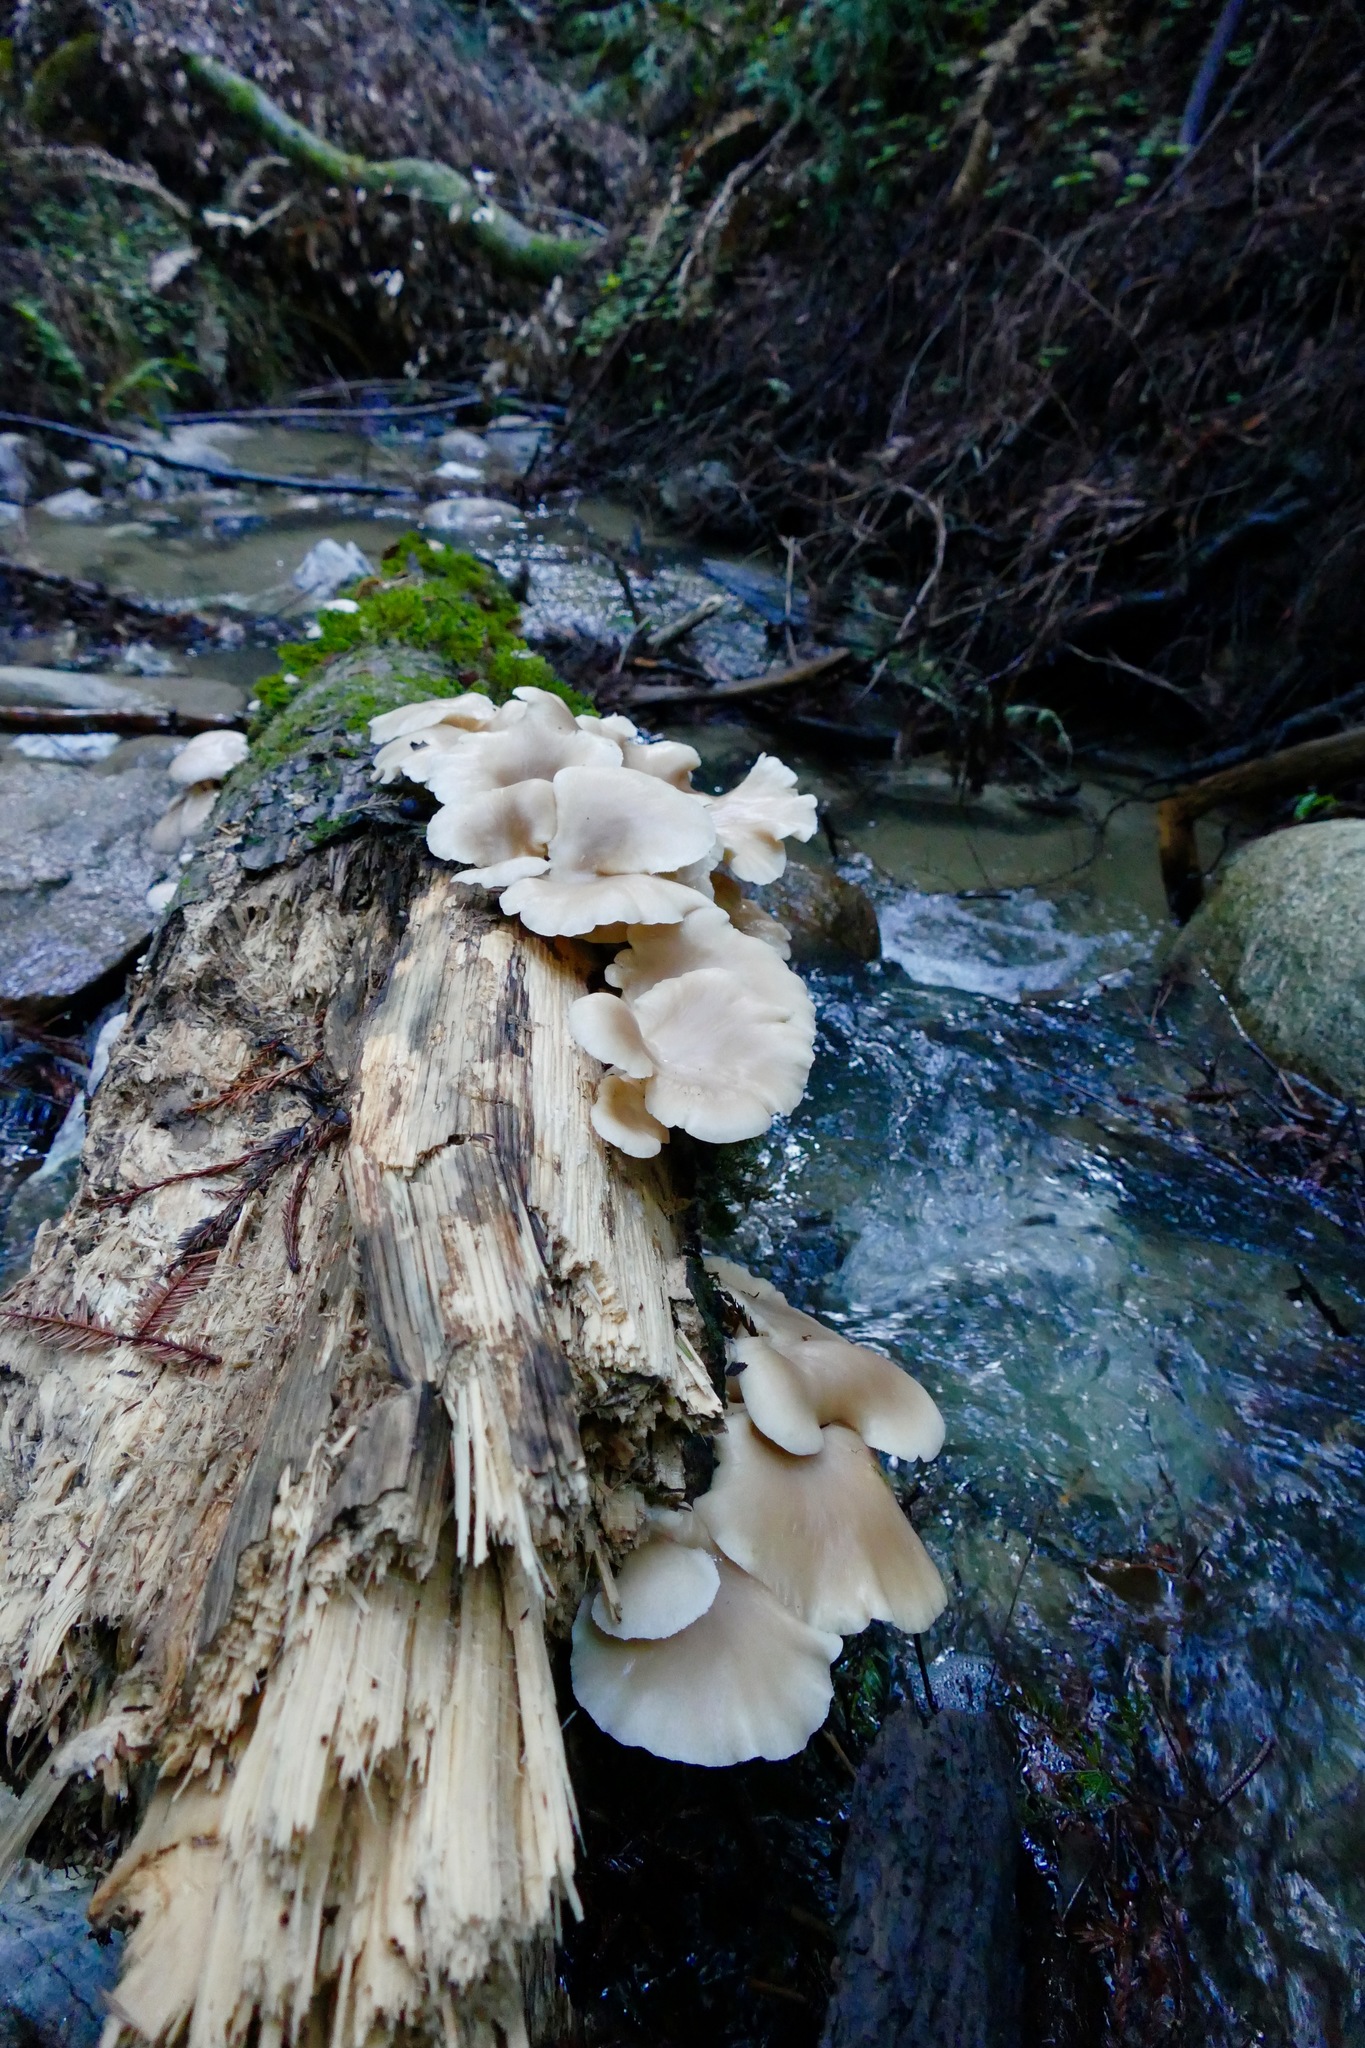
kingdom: Fungi
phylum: Basidiomycota
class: Agaricomycetes
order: Agaricales
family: Pleurotaceae
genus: Pleurotus
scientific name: Pleurotus pulmonarius
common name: Pale oyster
